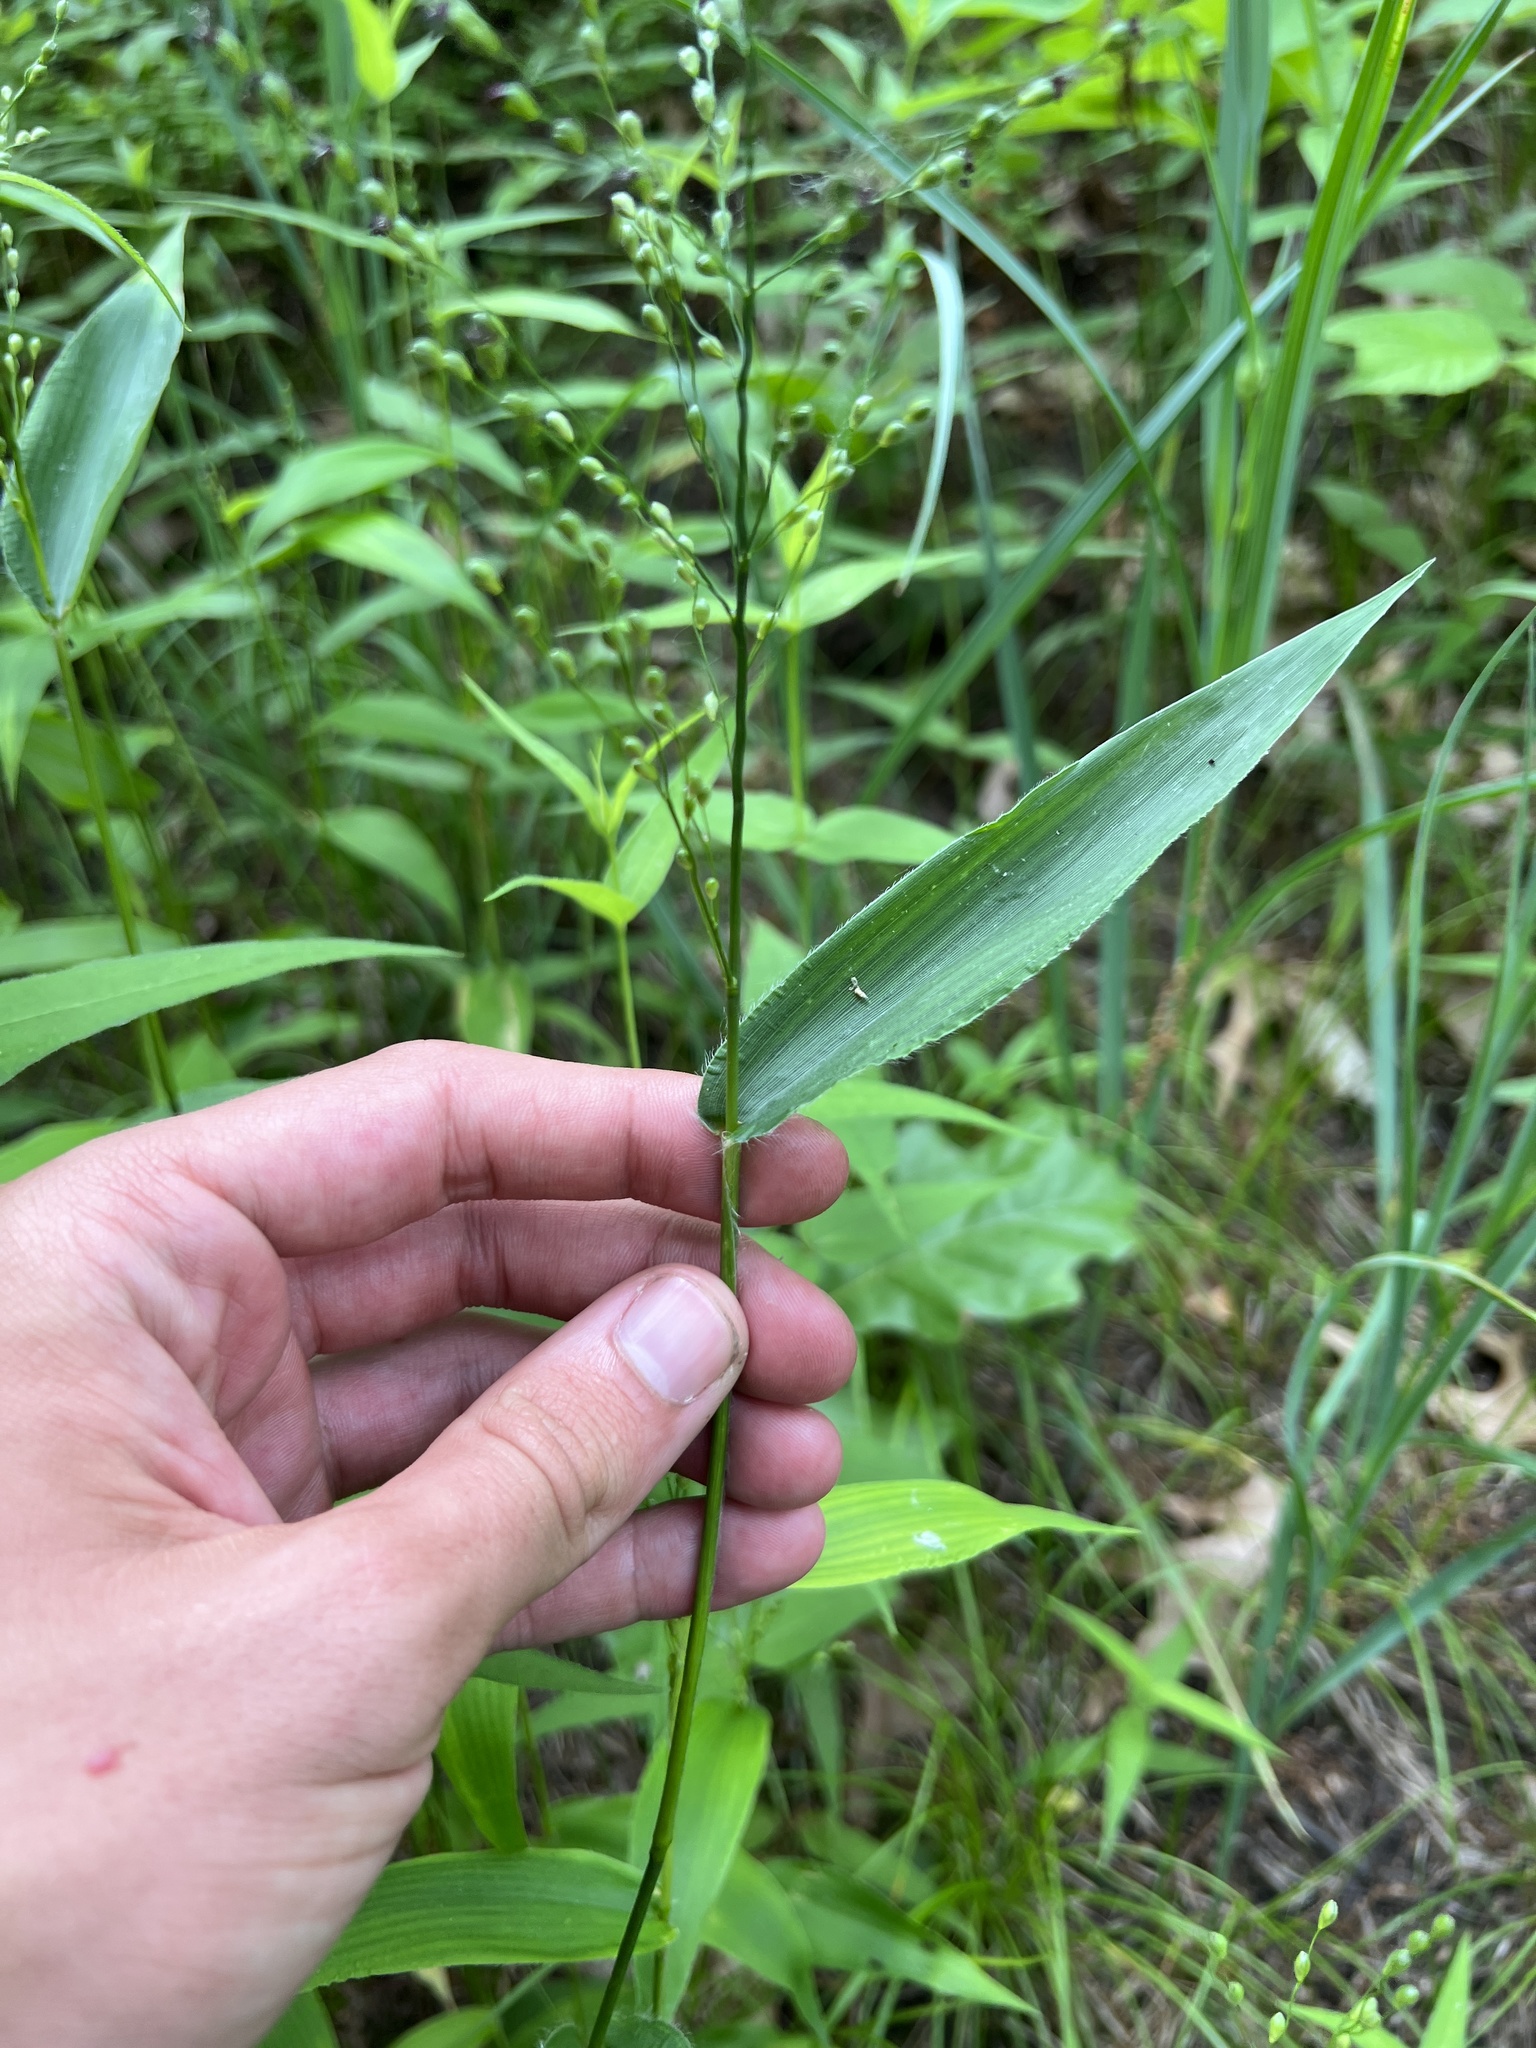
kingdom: Plantae
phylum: Tracheophyta
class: Liliopsida
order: Poales
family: Poaceae
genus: Dichanthelium
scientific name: Dichanthelium latifolium
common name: Broad-leaved panicgrass
